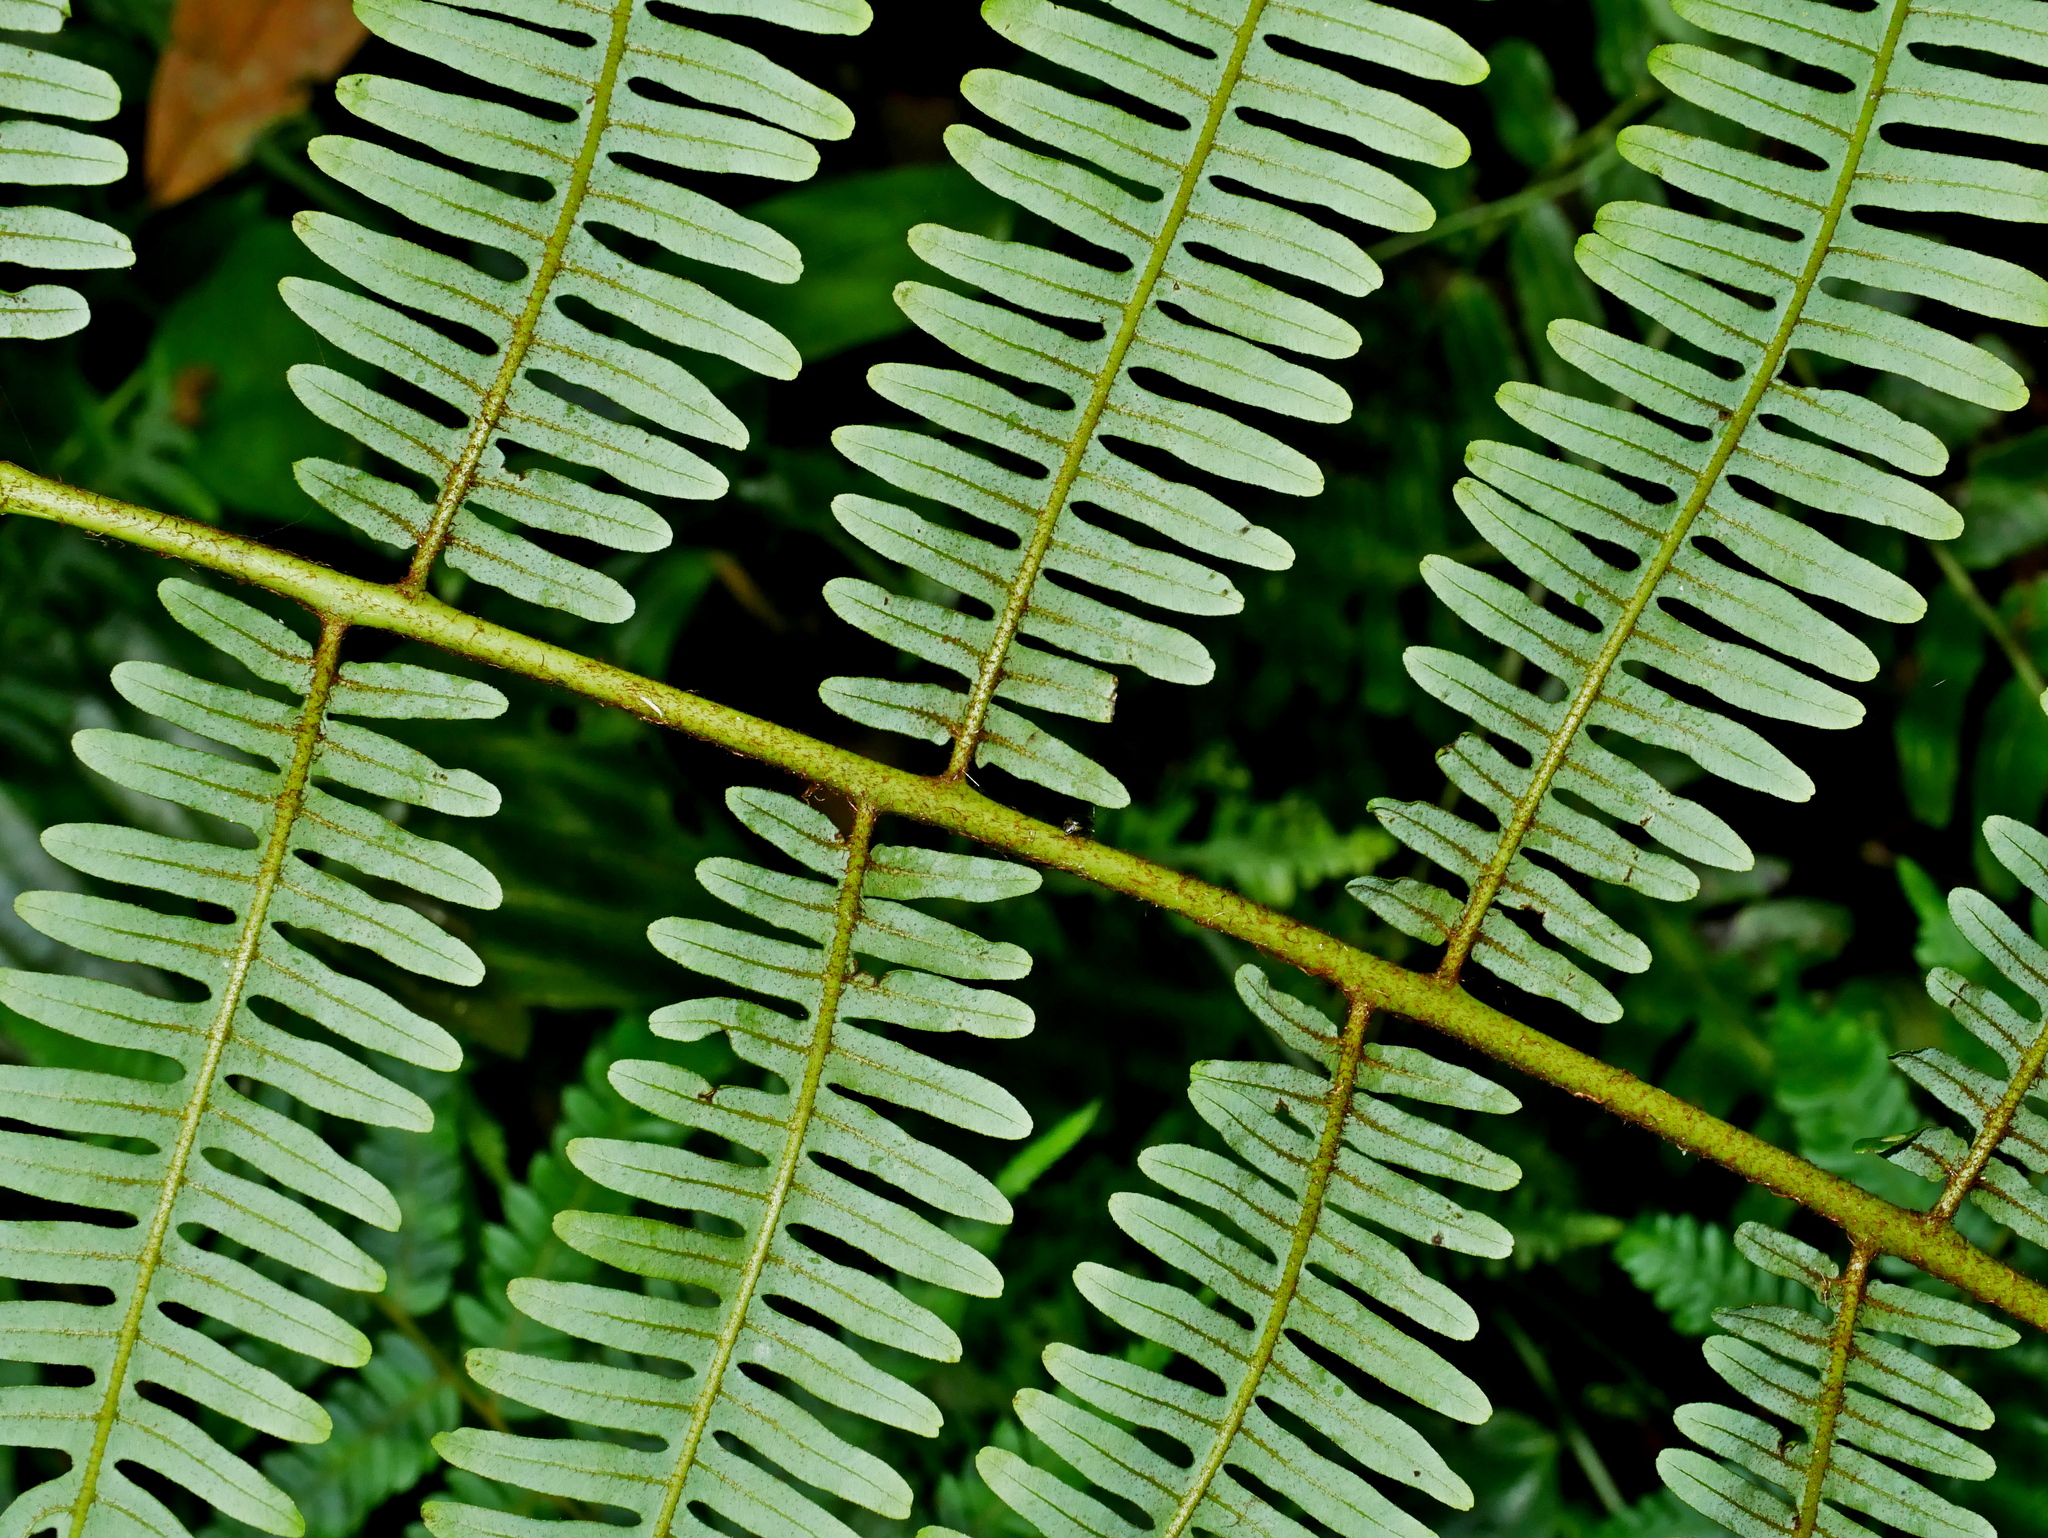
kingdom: Plantae
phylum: Tracheophyta
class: Polypodiopsida
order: Gleicheniales
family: Gleicheniaceae
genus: Diplopterygium
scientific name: Diplopterygium blotianum
